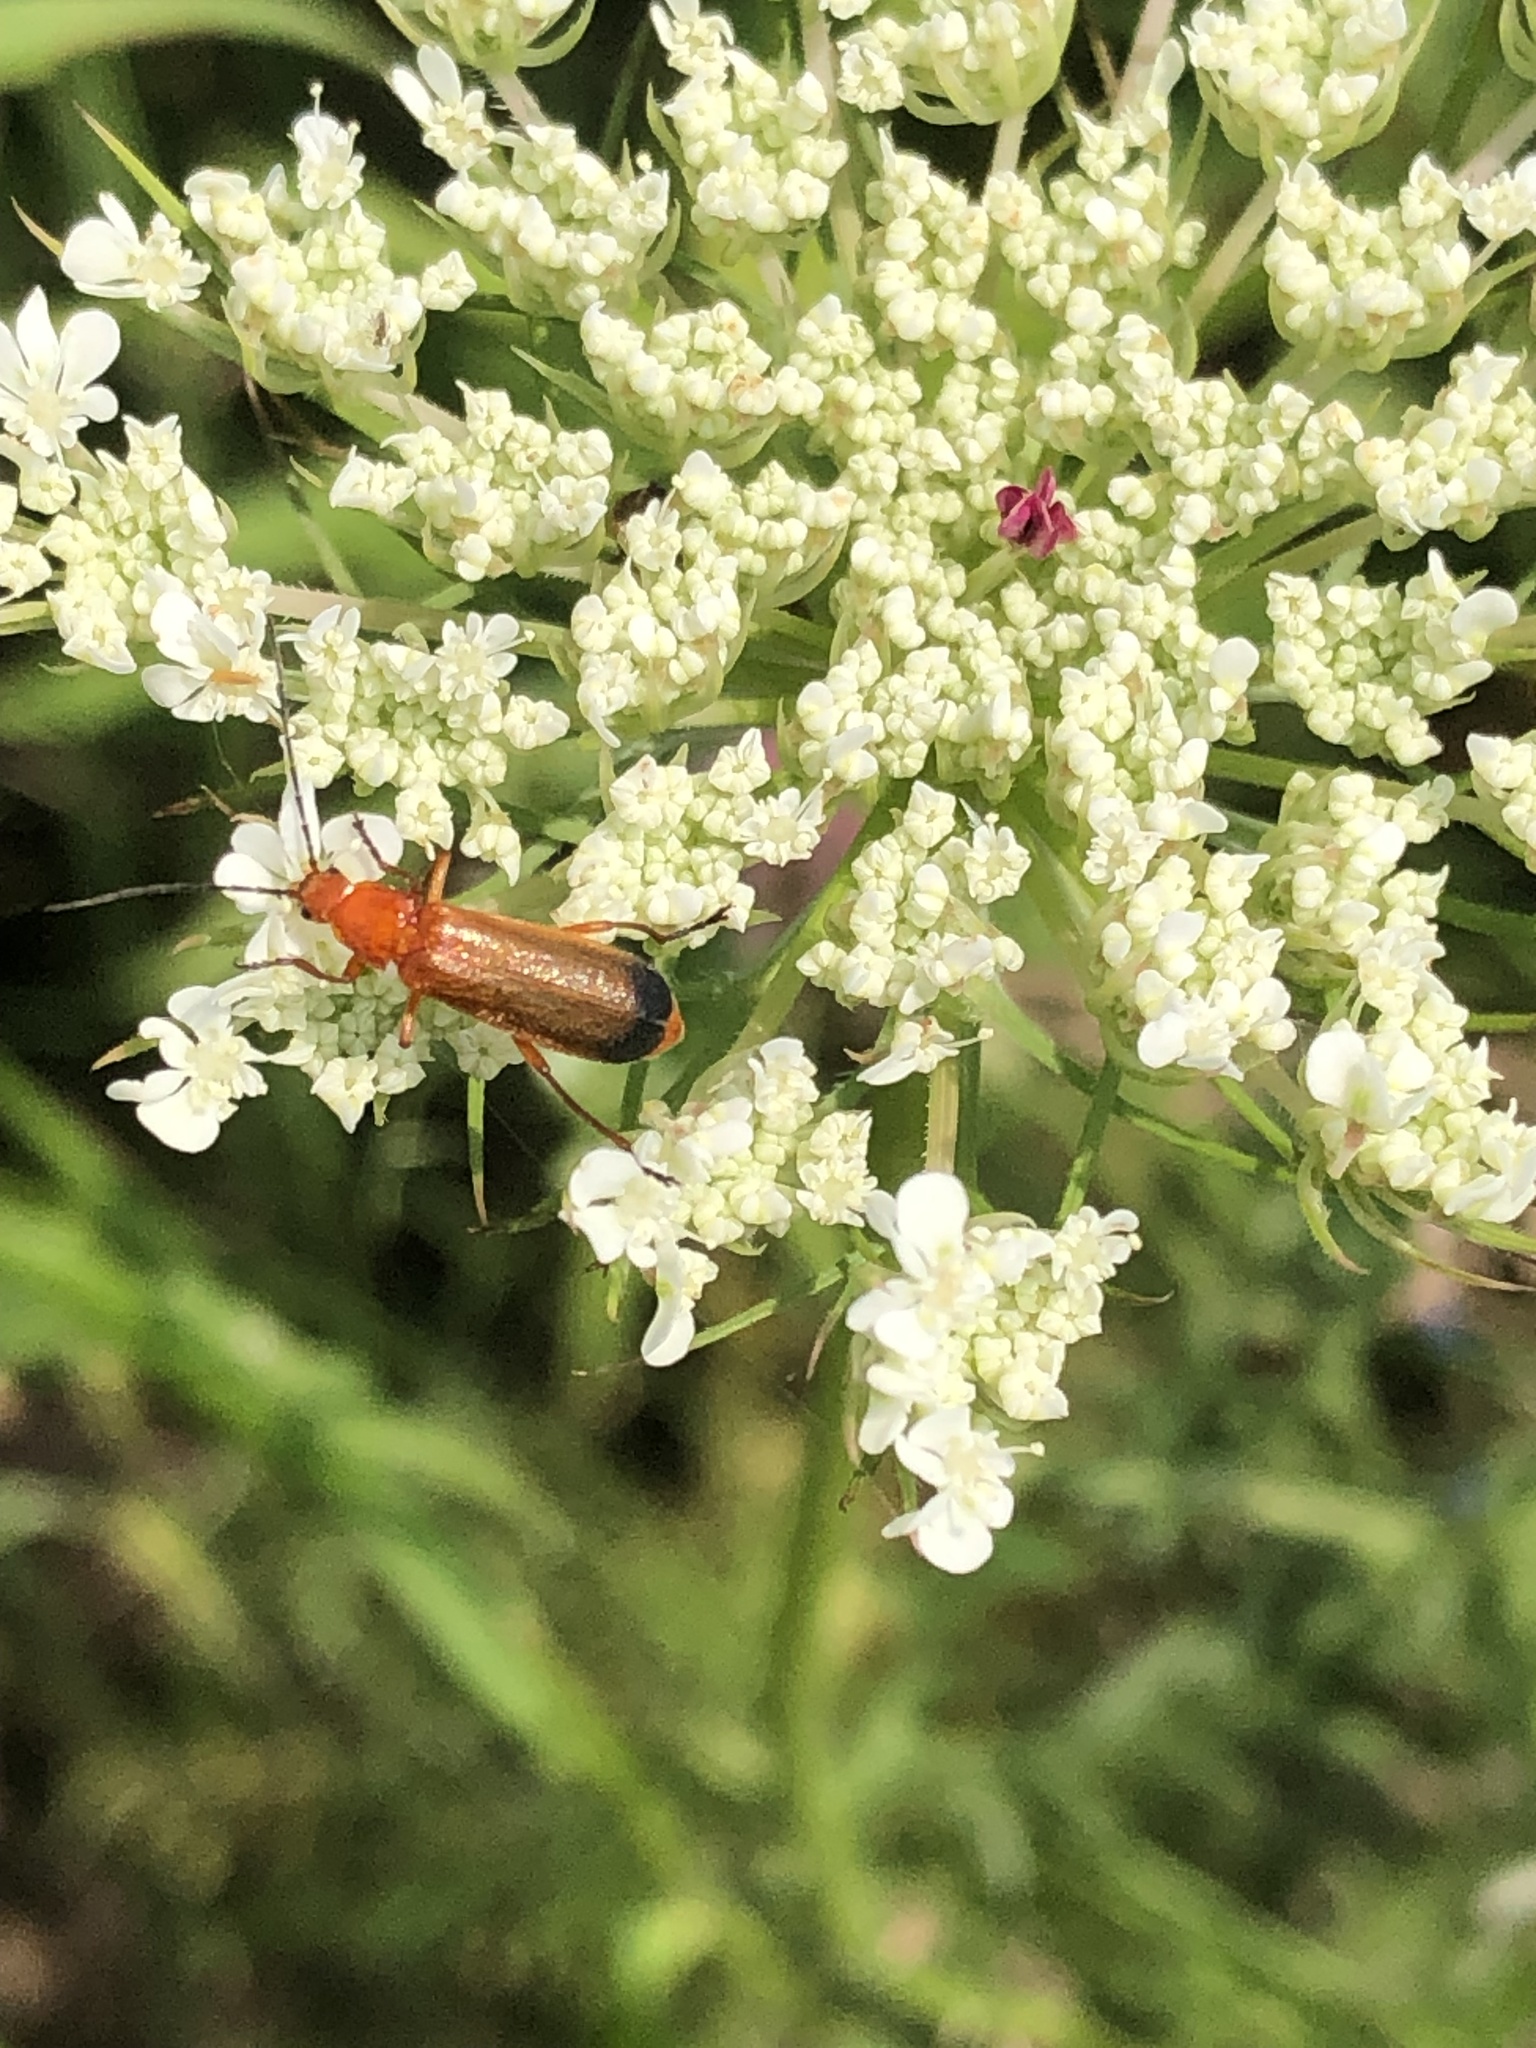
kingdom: Animalia
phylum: Arthropoda
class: Insecta
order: Coleoptera
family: Cantharidae
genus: Rhagonycha
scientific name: Rhagonycha fulva
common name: Common red soldier beetle
